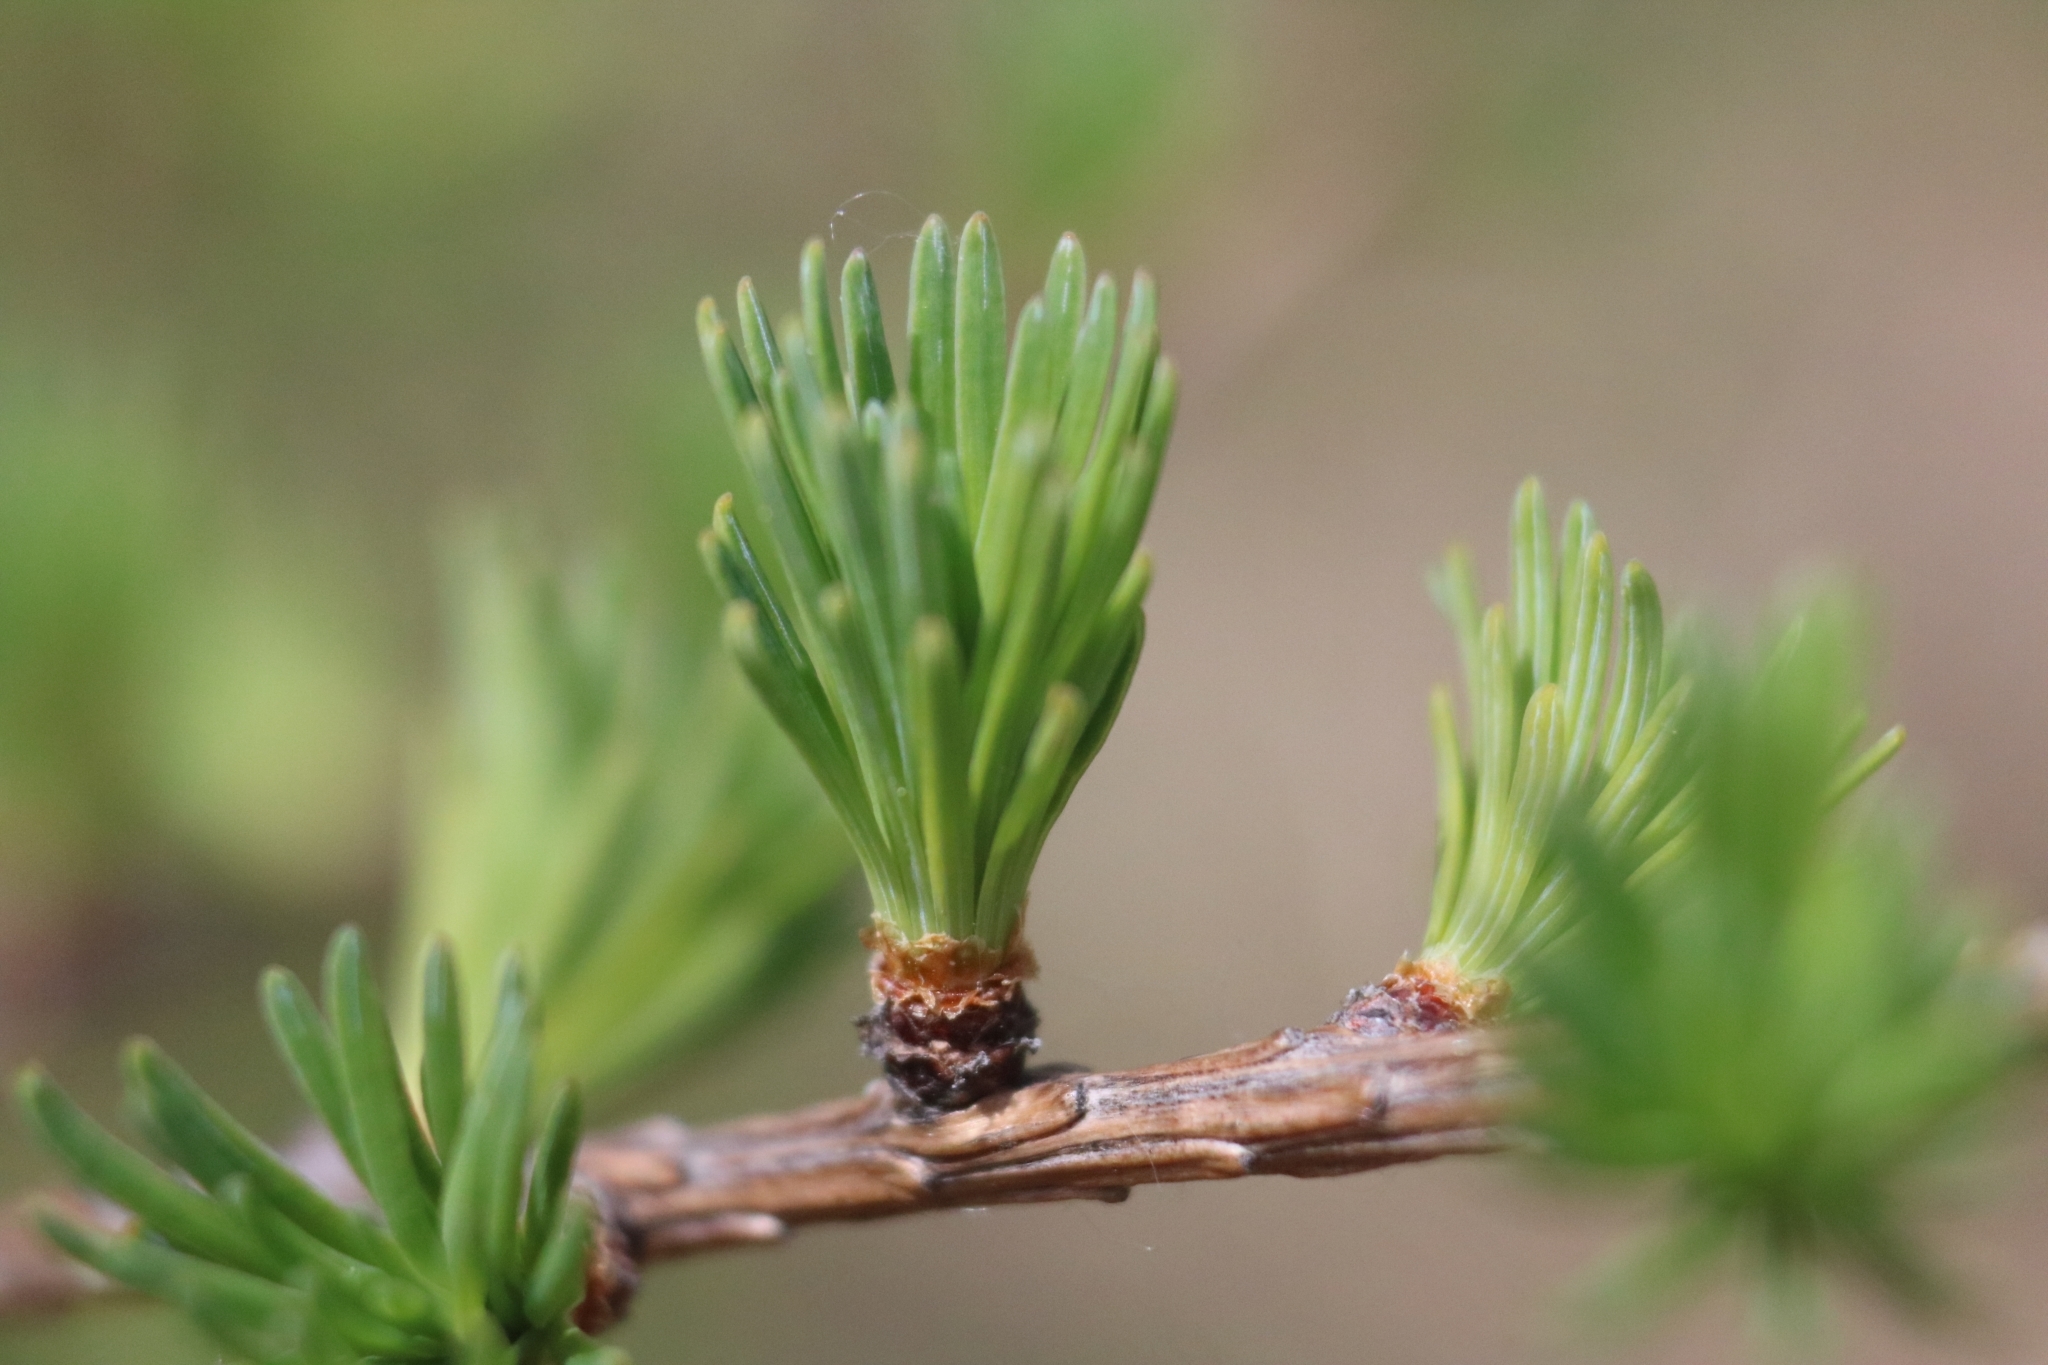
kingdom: Plantae
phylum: Tracheophyta
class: Pinopsida
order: Pinales
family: Pinaceae
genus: Larix
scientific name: Larix laricina
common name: American larch
